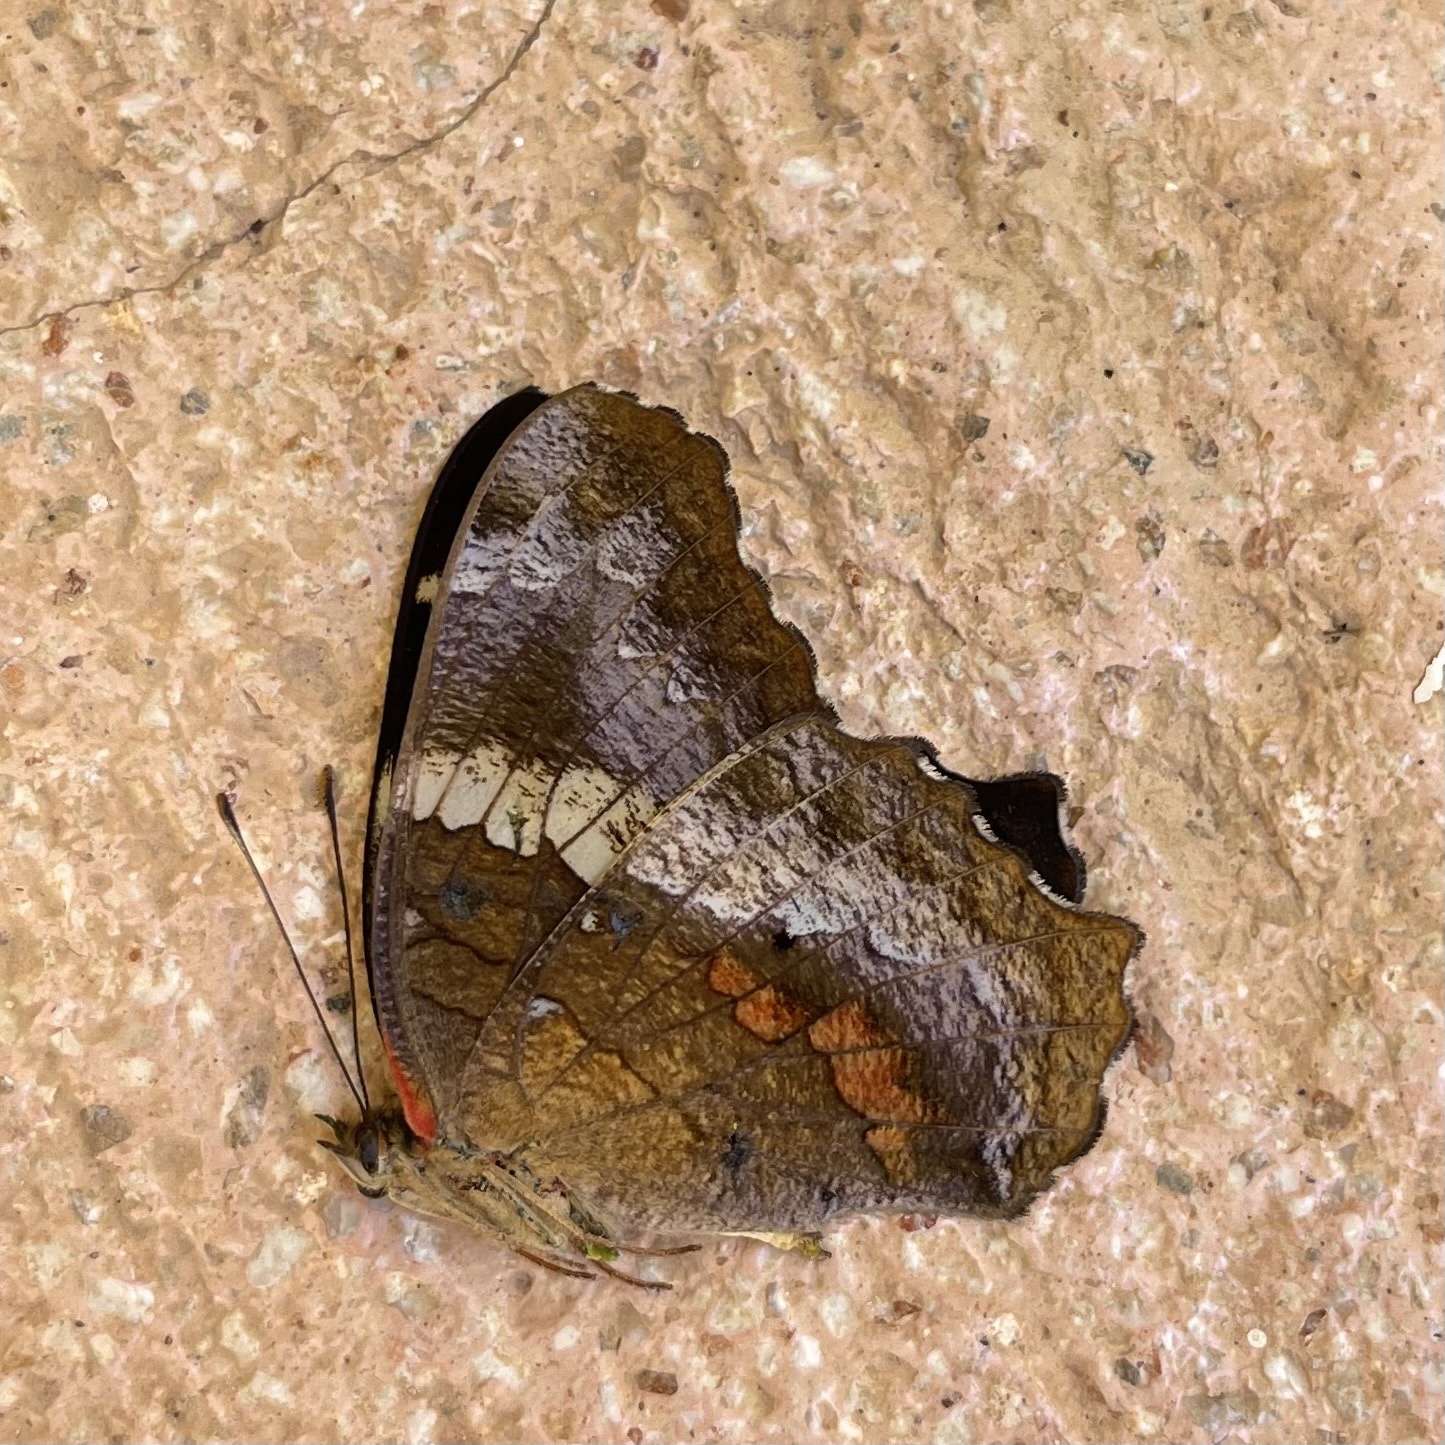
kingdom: Animalia
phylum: Arthropoda
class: Insecta
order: Lepidoptera
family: Nymphalidae
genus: Anartia
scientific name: Anartia fatima
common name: Banded peacock
